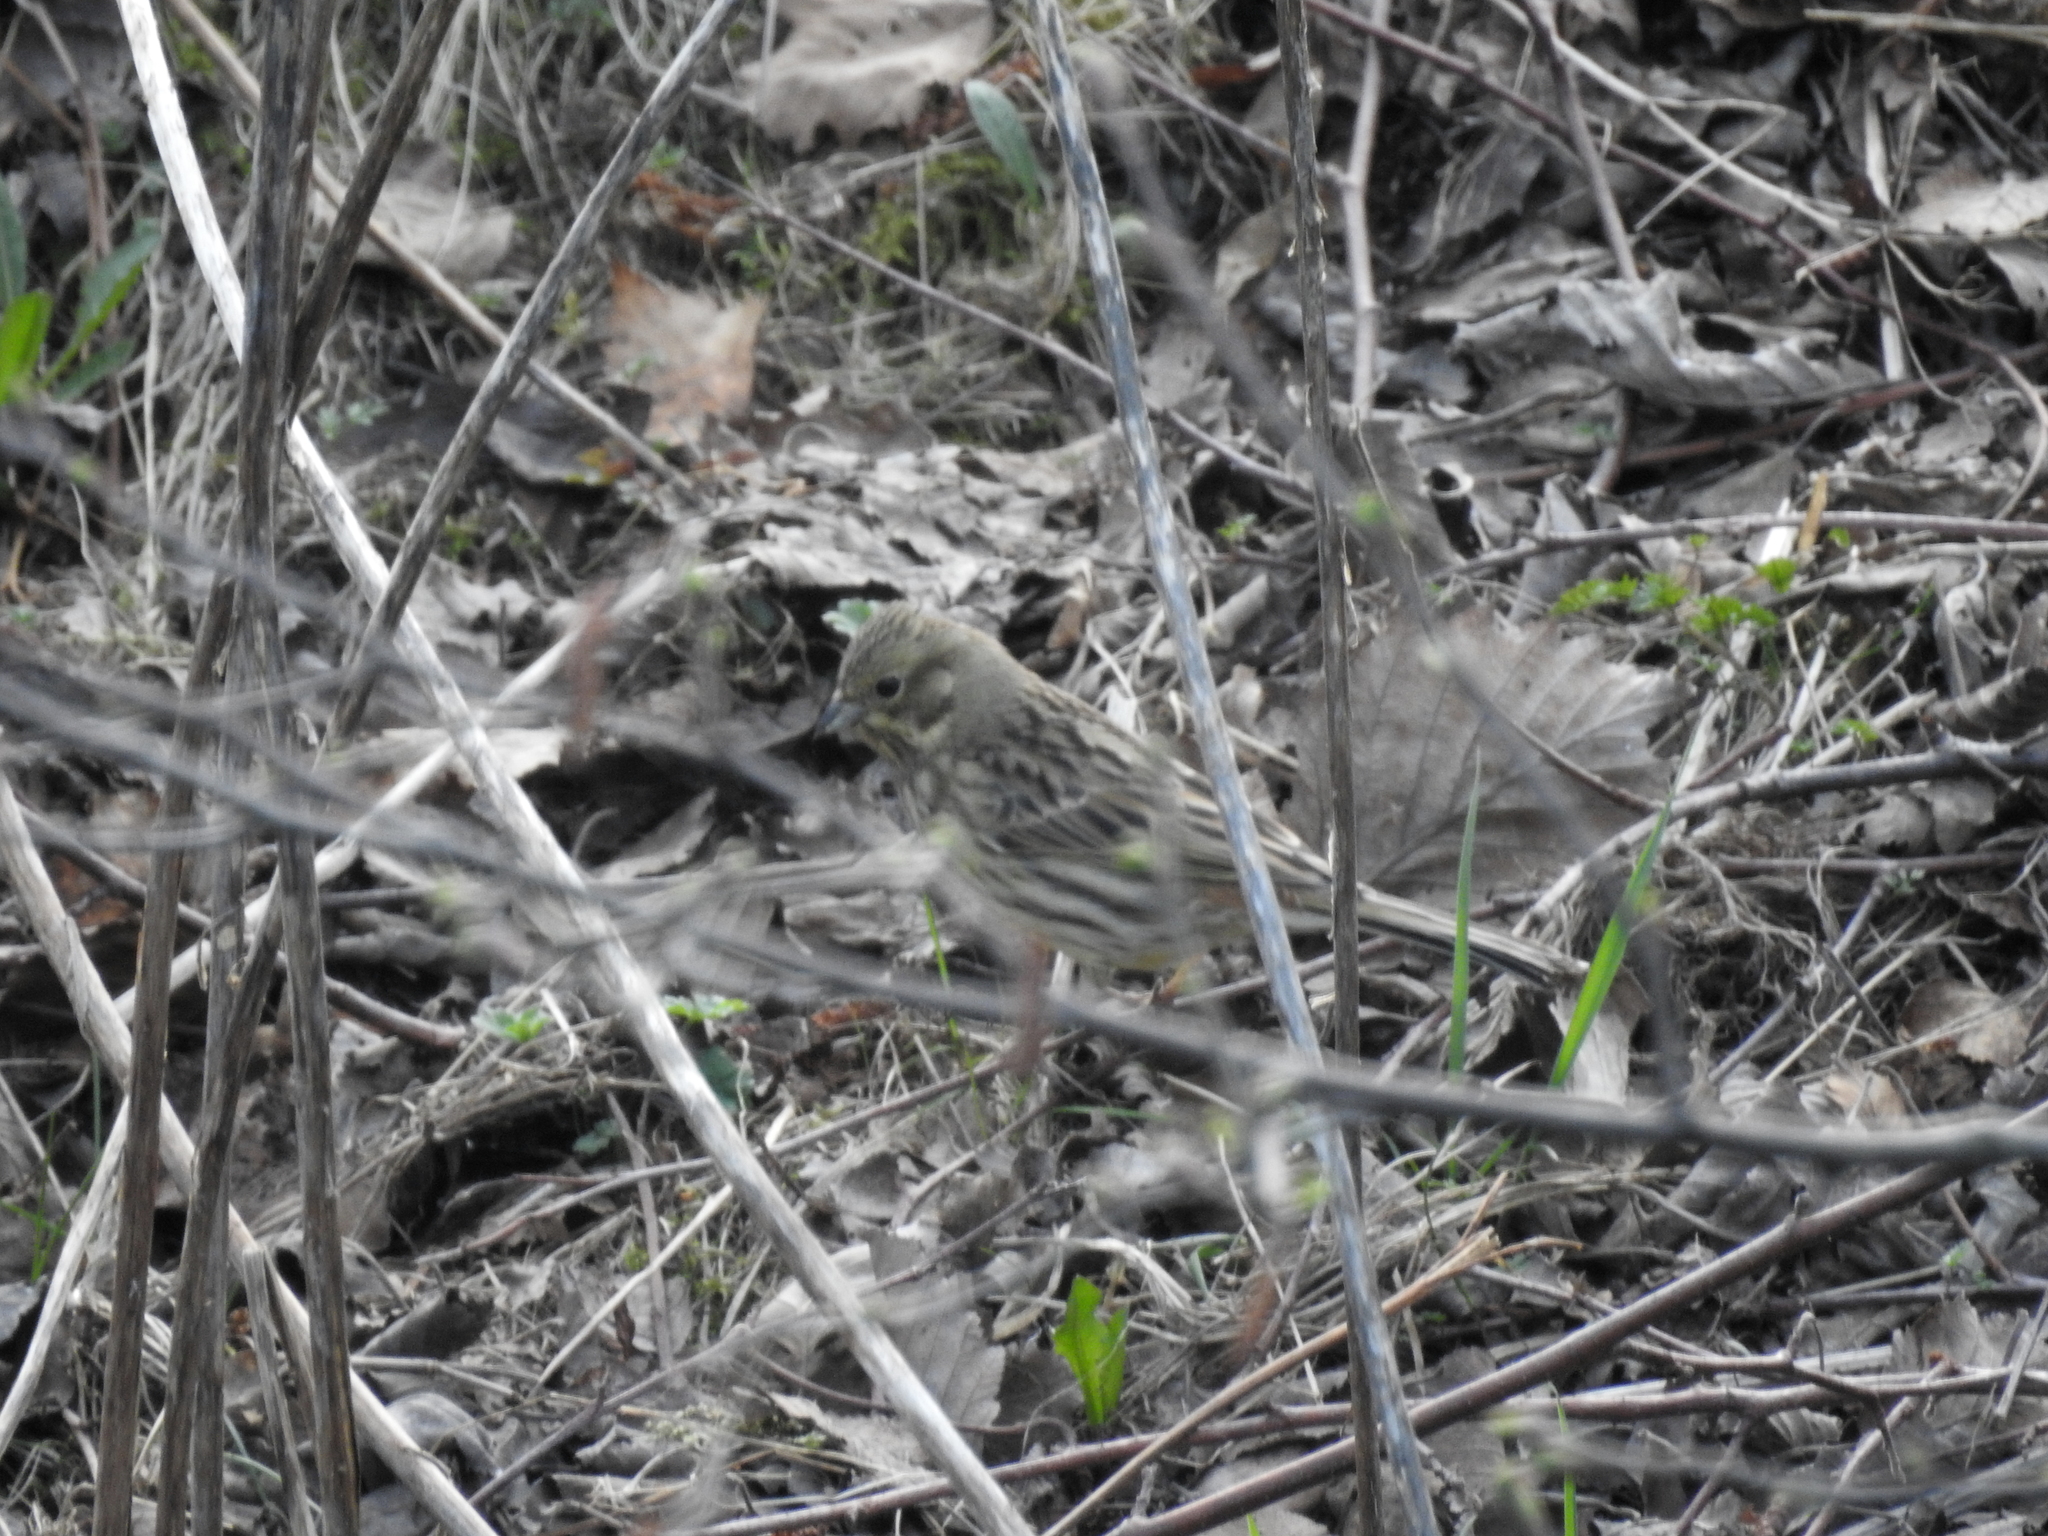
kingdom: Animalia
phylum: Chordata
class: Aves
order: Passeriformes
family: Emberizidae
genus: Emberiza
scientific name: Emberiza citrinella
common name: Yellowhammer
